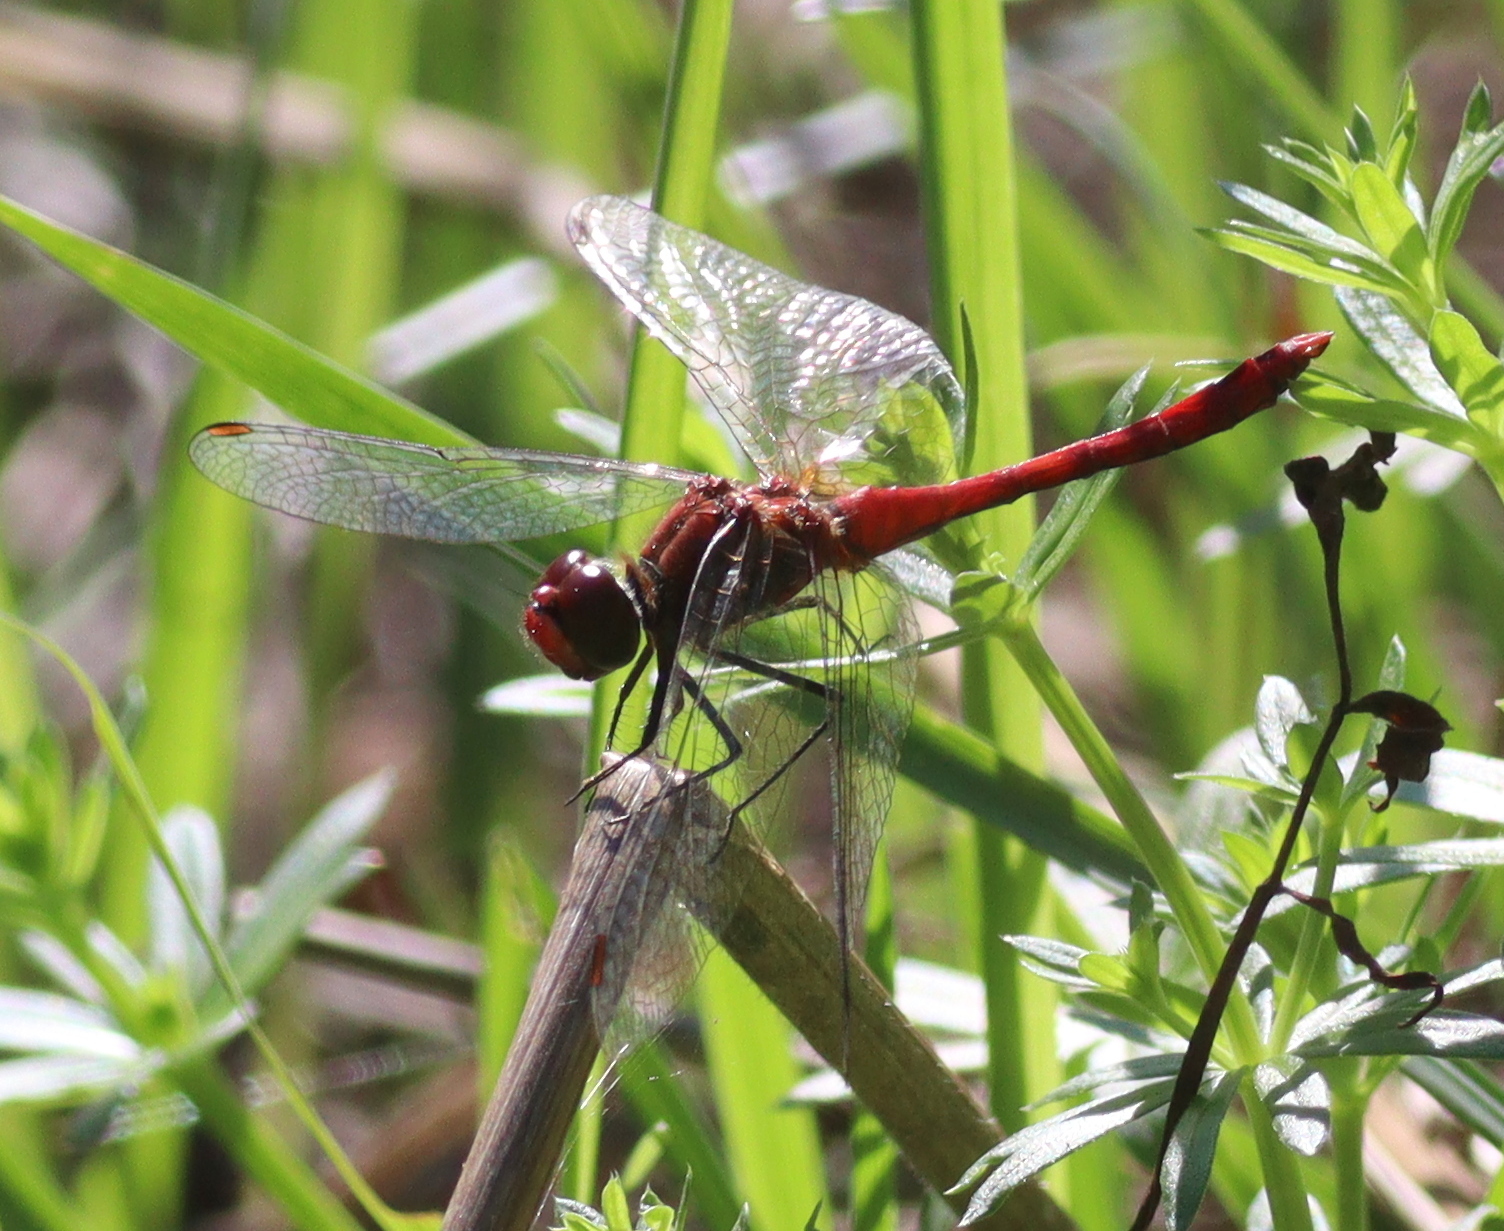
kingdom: Animalia
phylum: Arthropoda
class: Insecta
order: Odonata
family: Libellulidae
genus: Sympetrum
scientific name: Sympetrum sanguineum
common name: Ruddy darter
